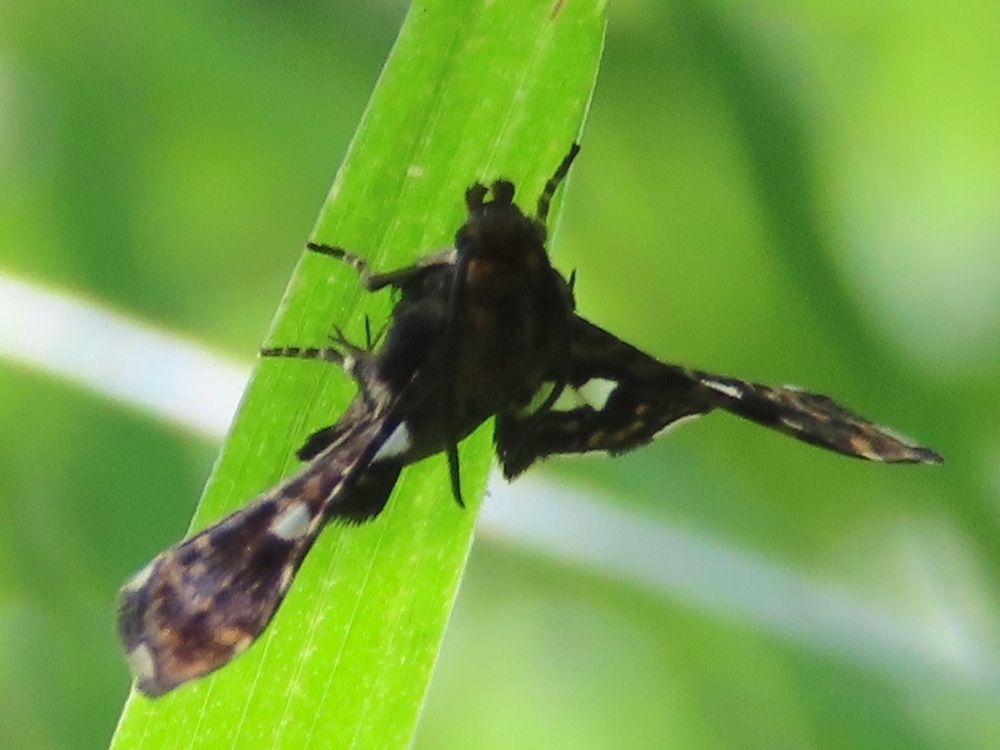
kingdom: Animalia
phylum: Arthropoda
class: Insecta
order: Lepidoptera
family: Thyrididae
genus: Thyris
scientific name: Thyris maculata
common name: Spotted thyris moth
